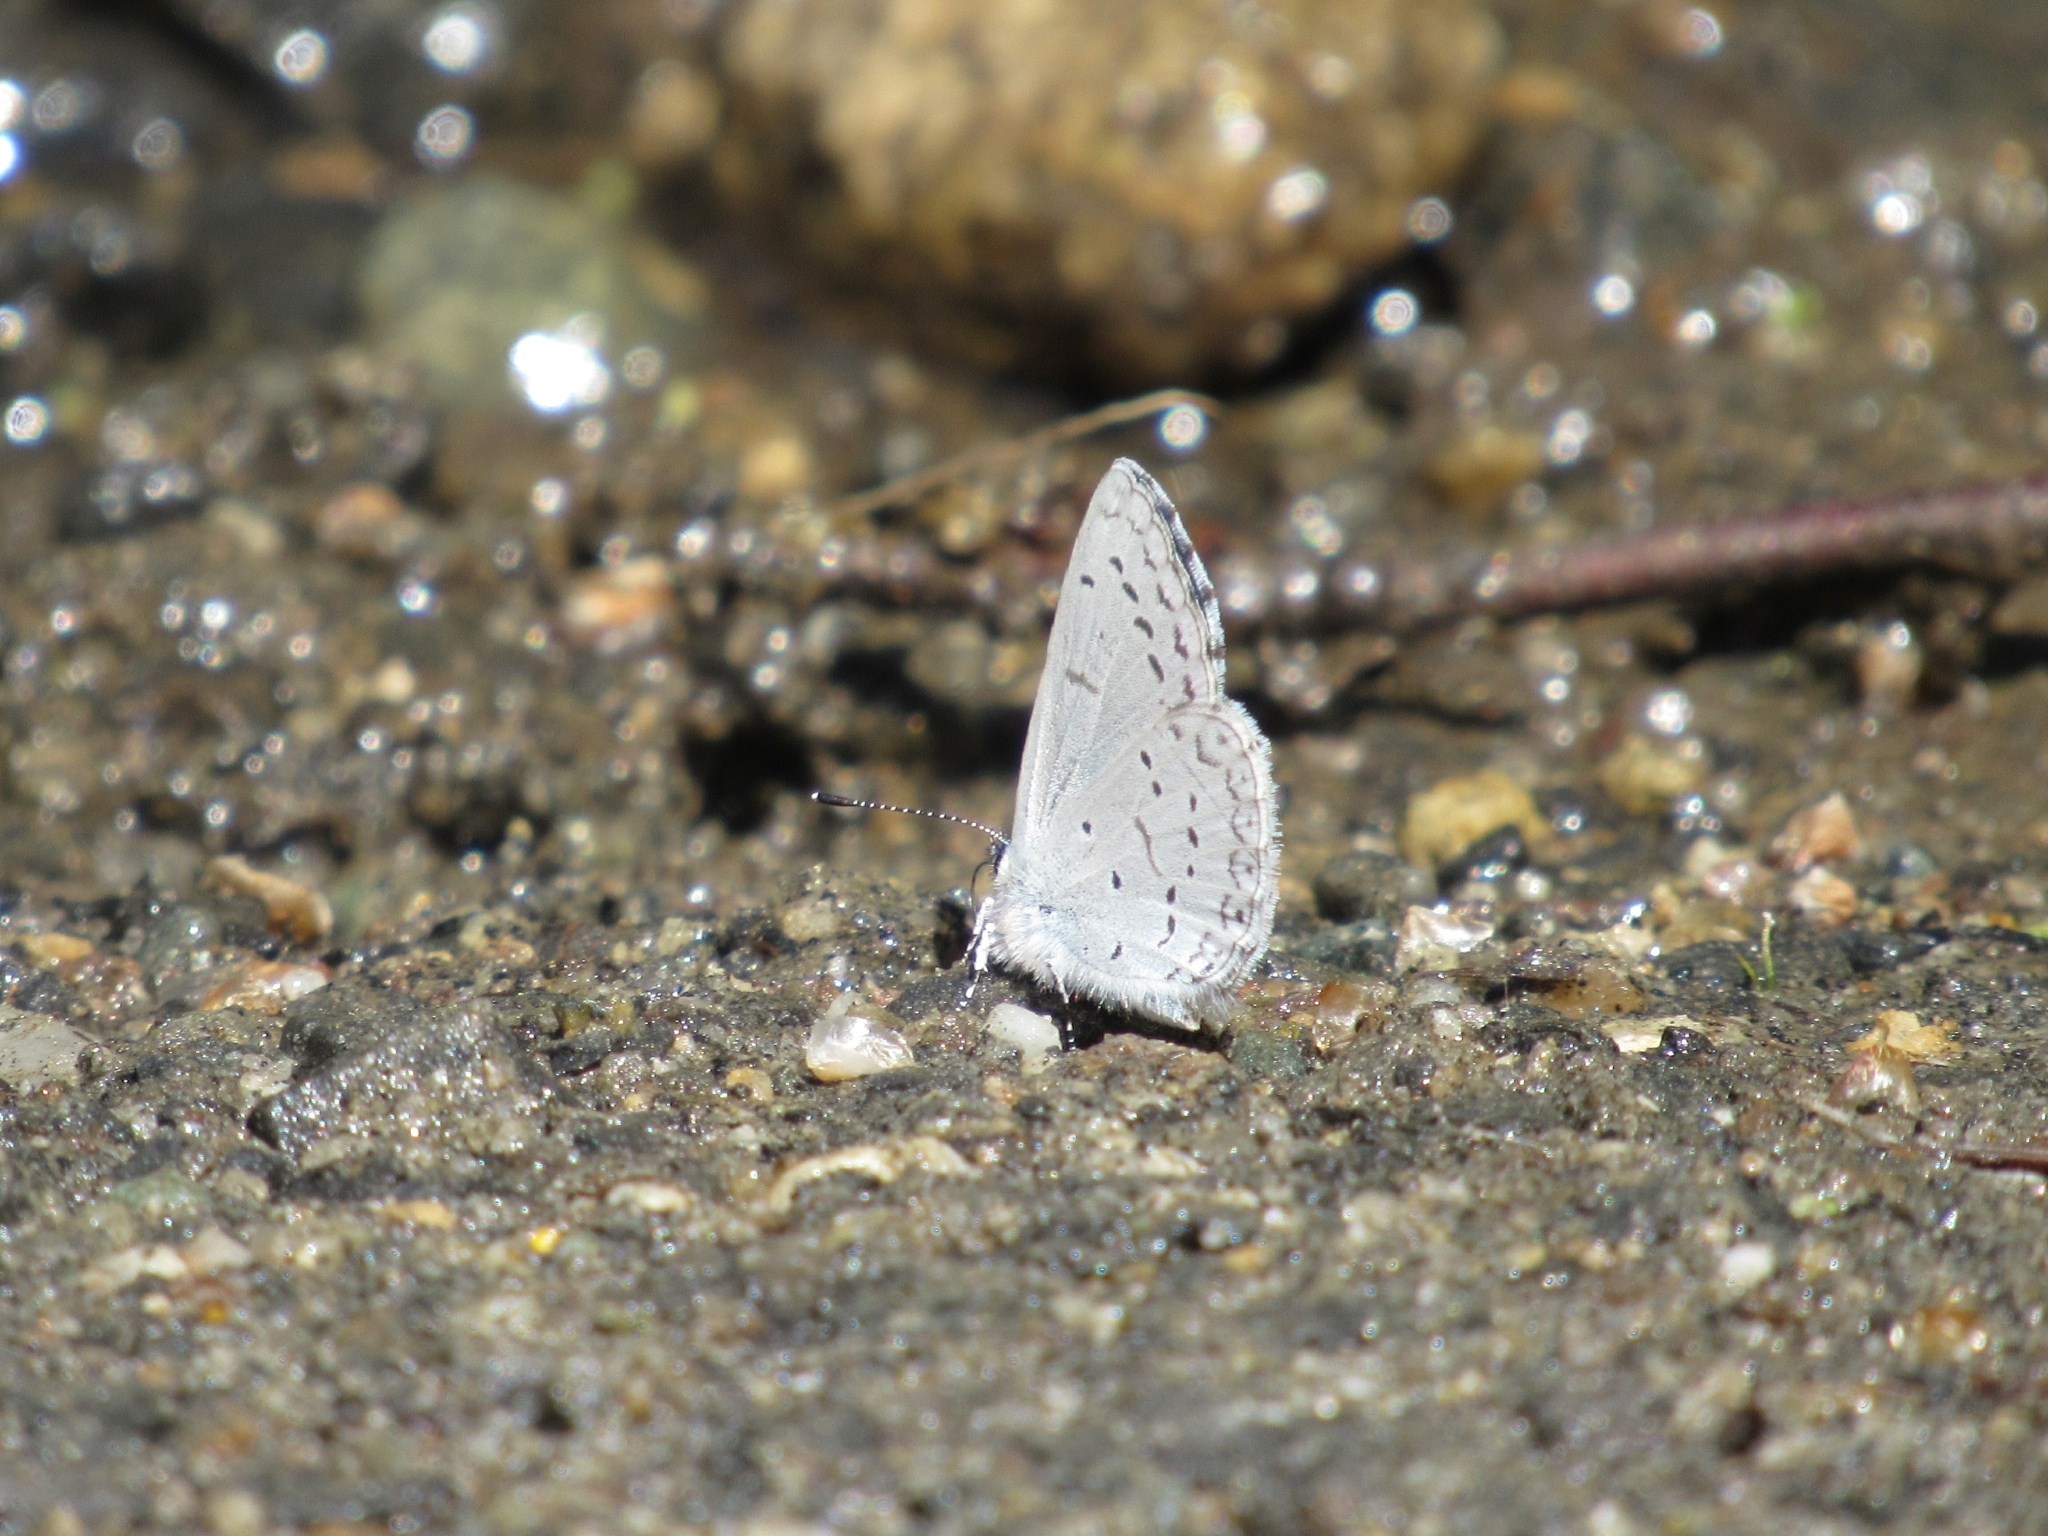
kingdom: Animalia
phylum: Arthropoda
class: Insecta
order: Lepidoptera
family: Lycaenidae
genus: Celastrina
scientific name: Celastrina ladon
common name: Spring azure
